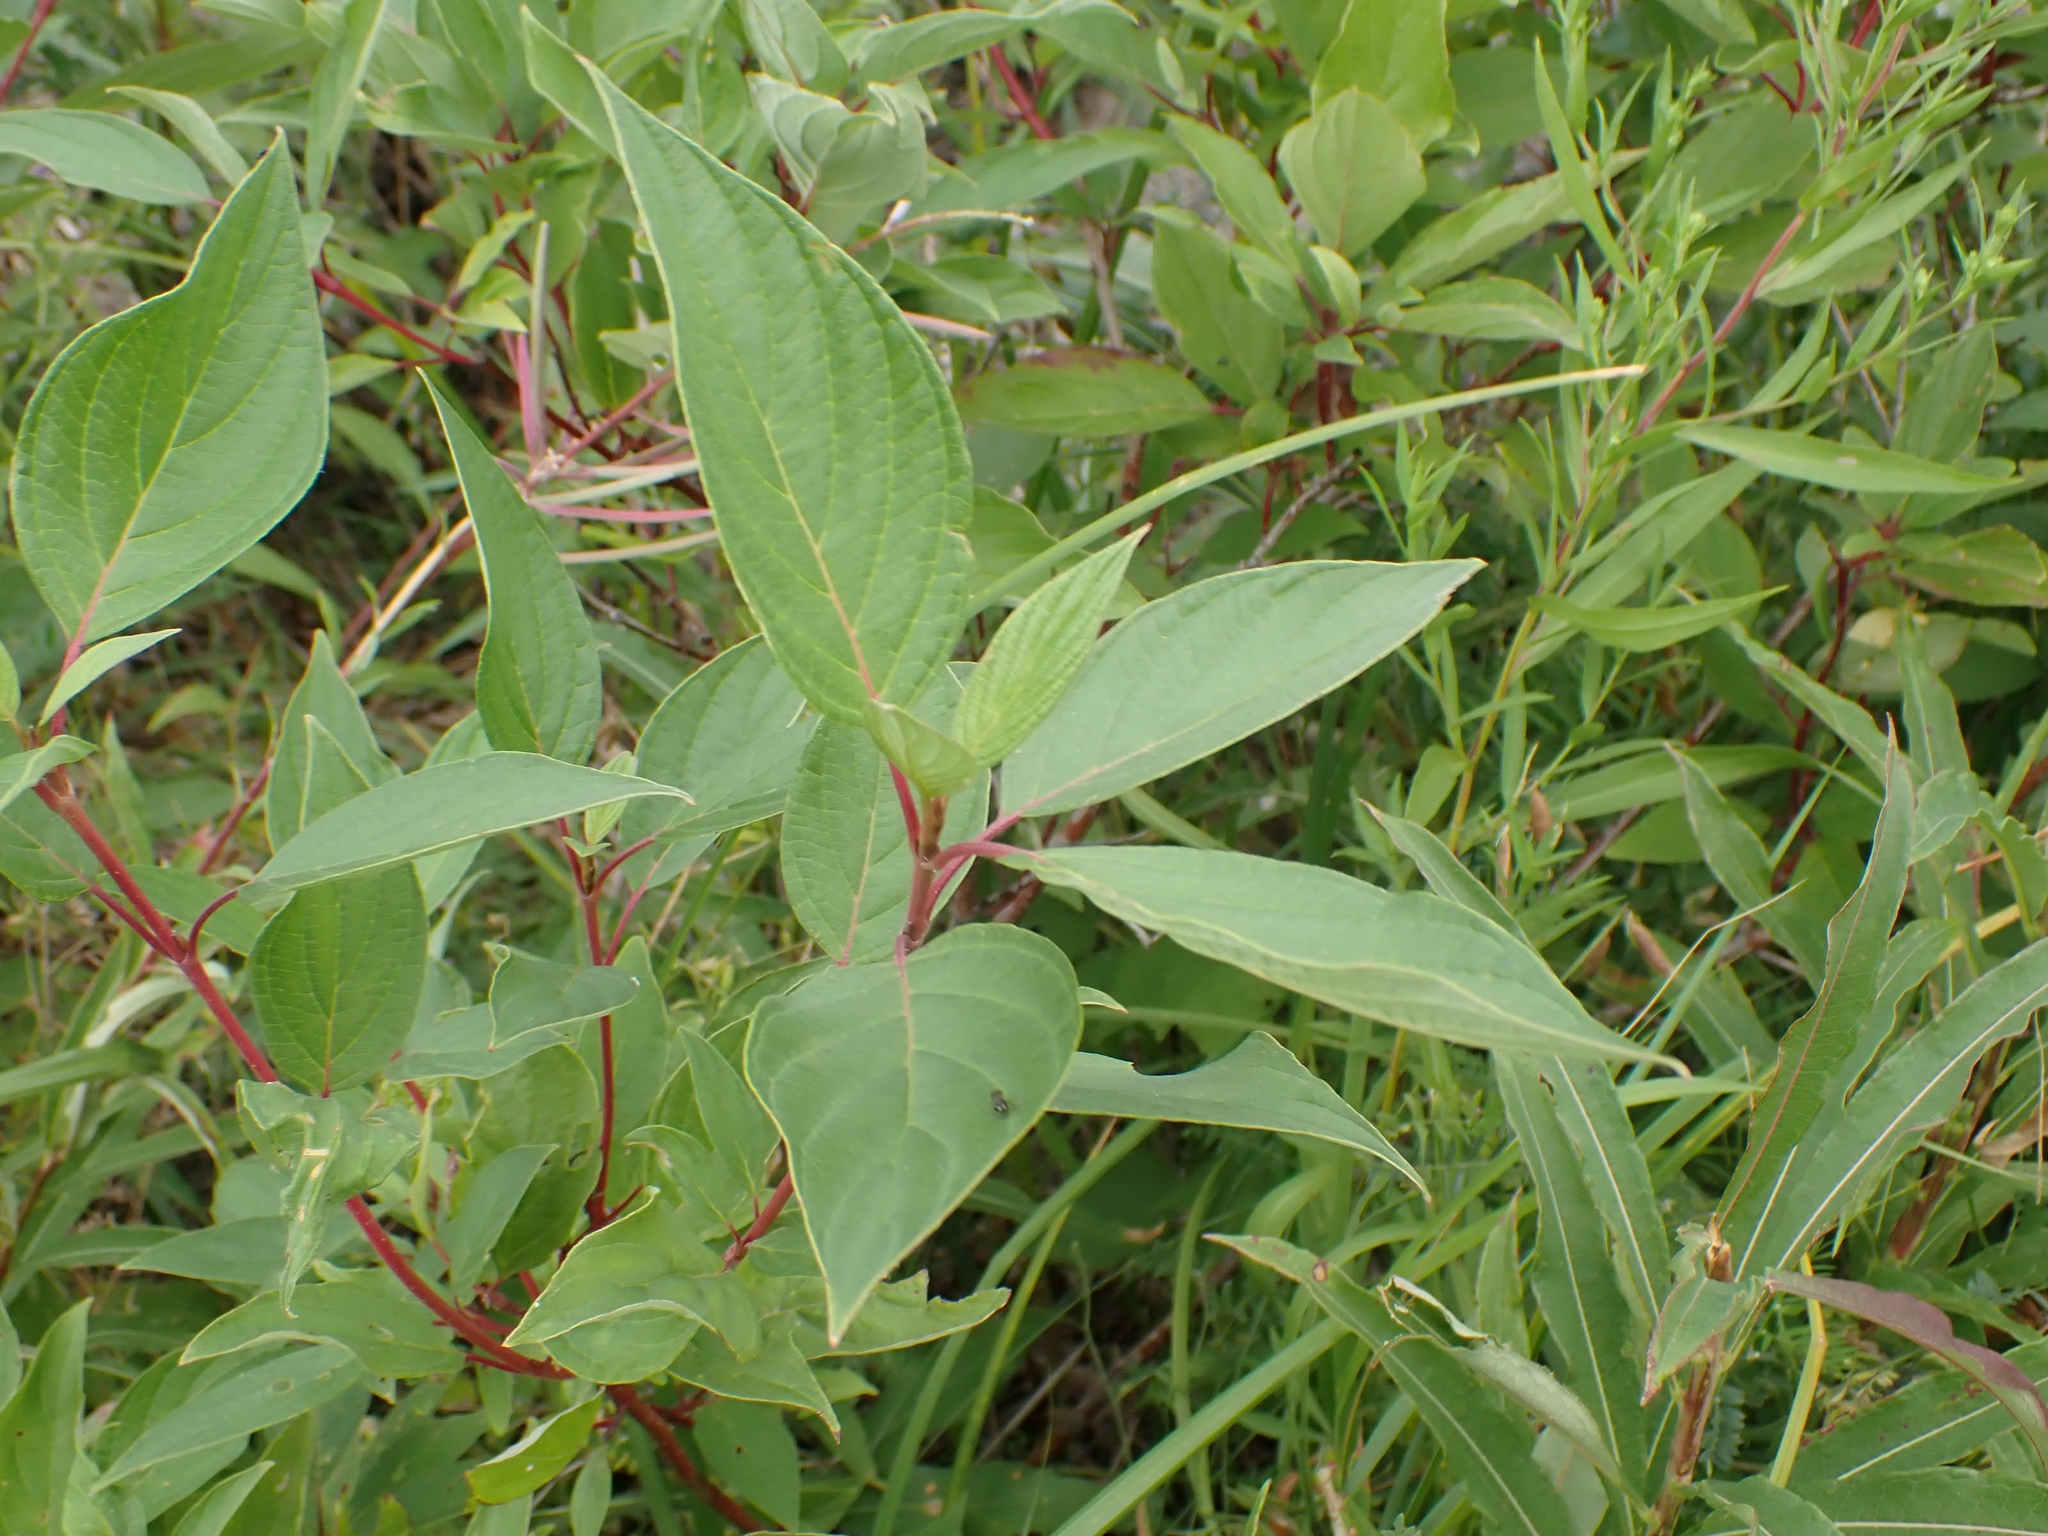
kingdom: Plantae
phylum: Tracheophyta
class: Magnoliopsida
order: Cornales
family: Cornaceae
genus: Cornus
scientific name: Cornus sericea
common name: Red-osier dogwood
